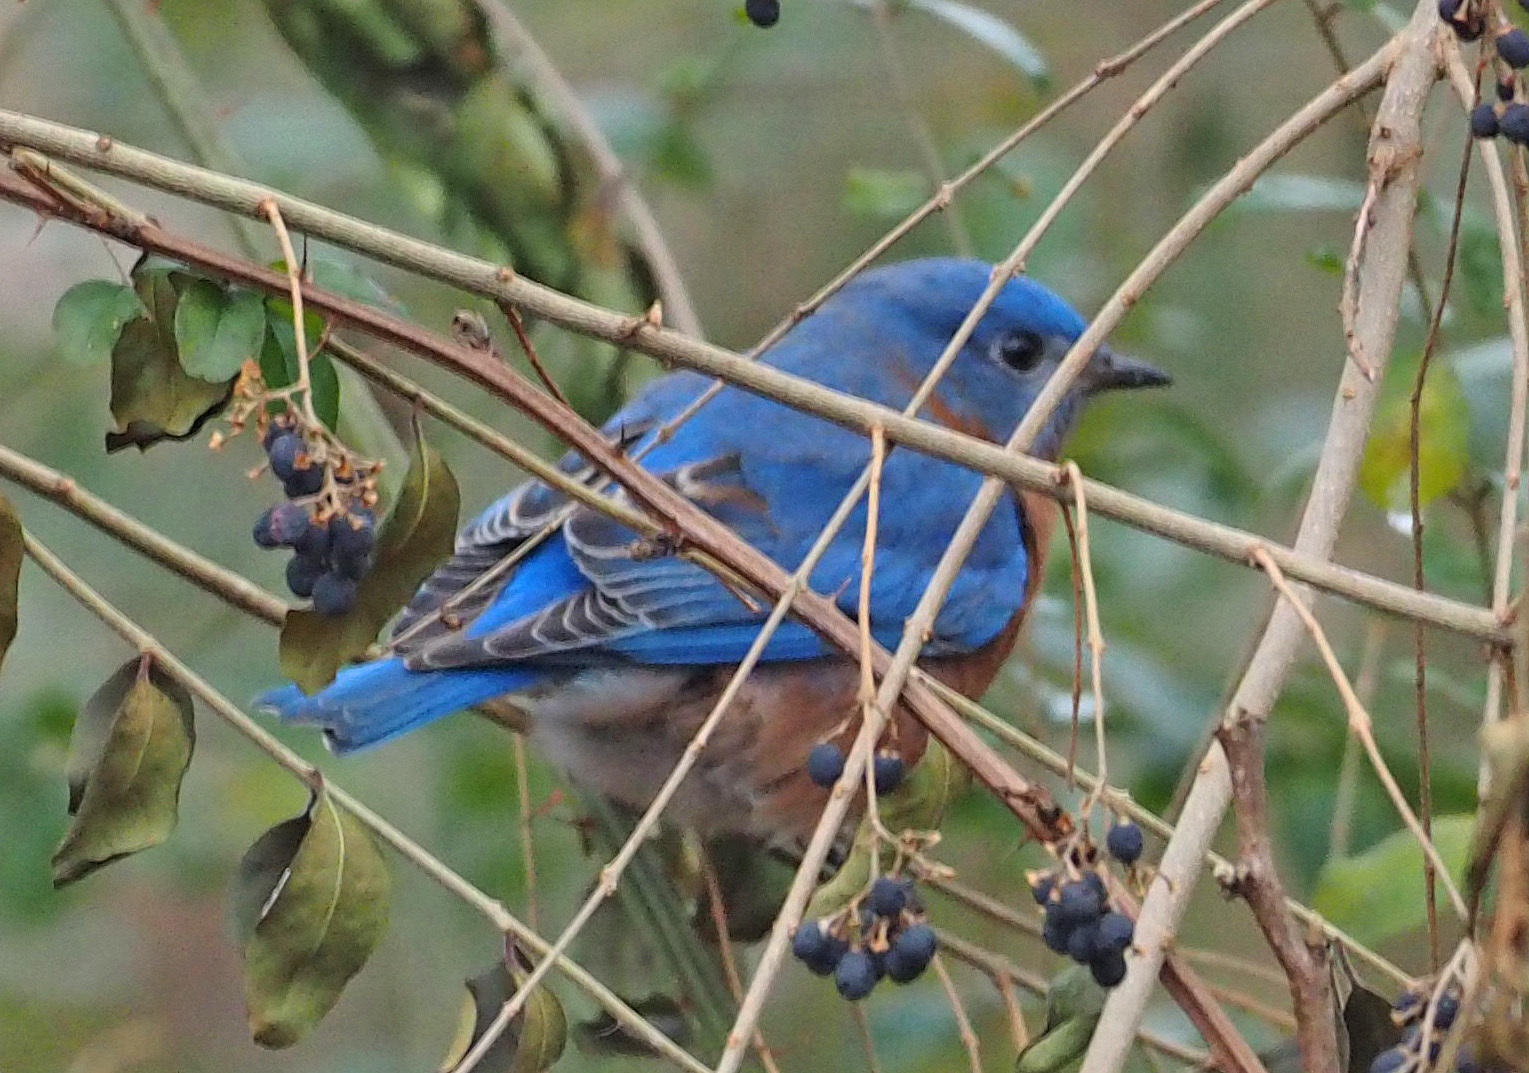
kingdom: Animalia
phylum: Chordata
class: Aves
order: Passeriformes
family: Turdidae
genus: Sialia
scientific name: Sialia sialis
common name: Eastern bluebird
